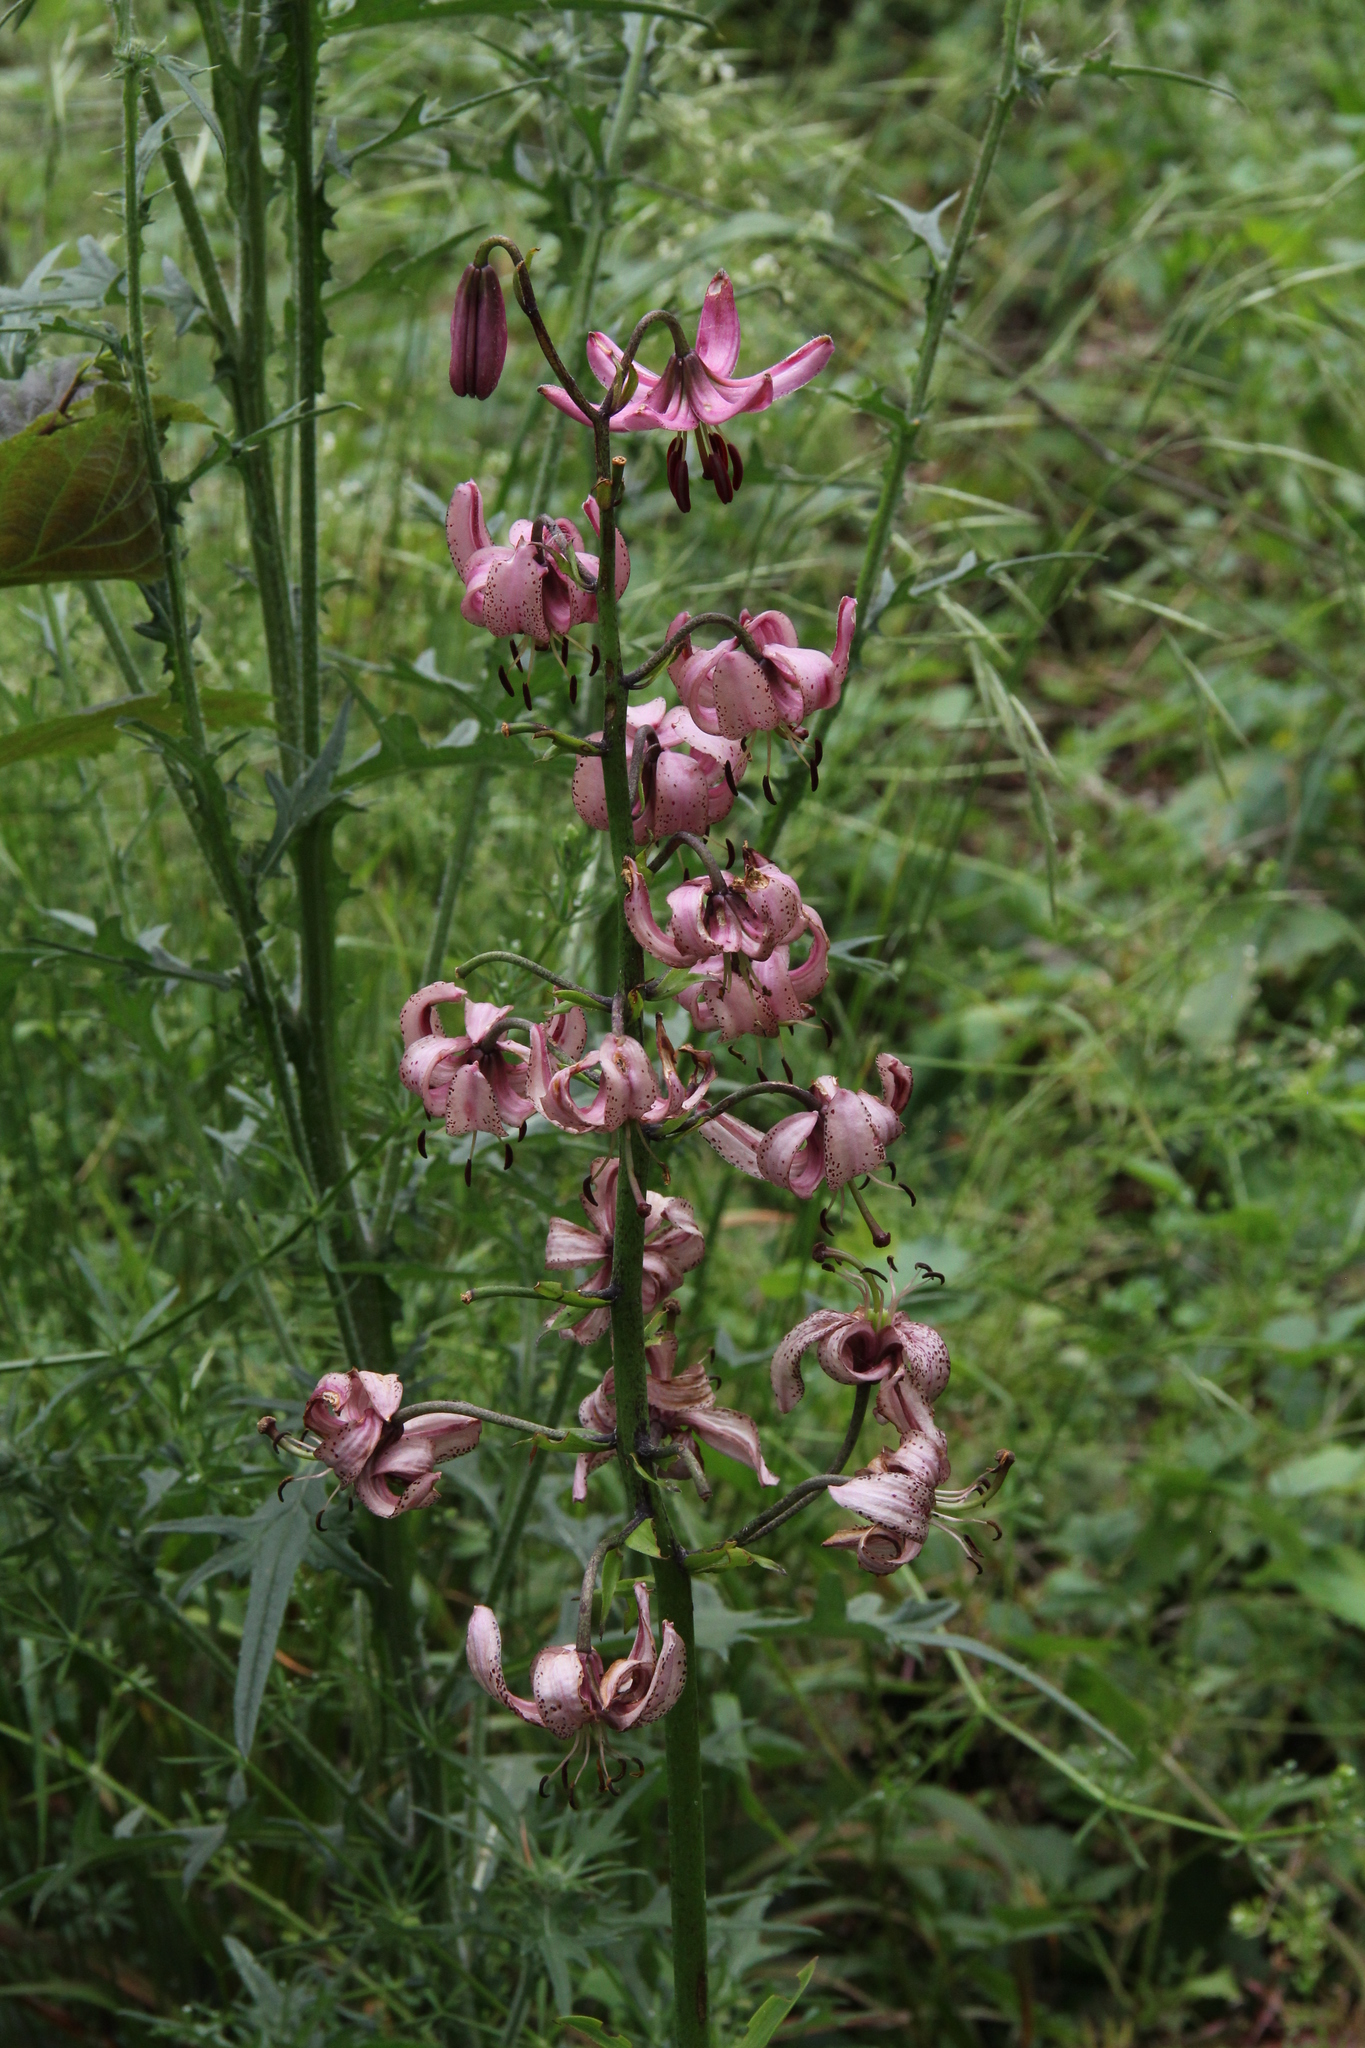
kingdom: Plantae
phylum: Tracheophyta
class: Liliopsida
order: Liliales
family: Liliaceae
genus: Lilium
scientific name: Lilium martagon
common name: Martagon lily
